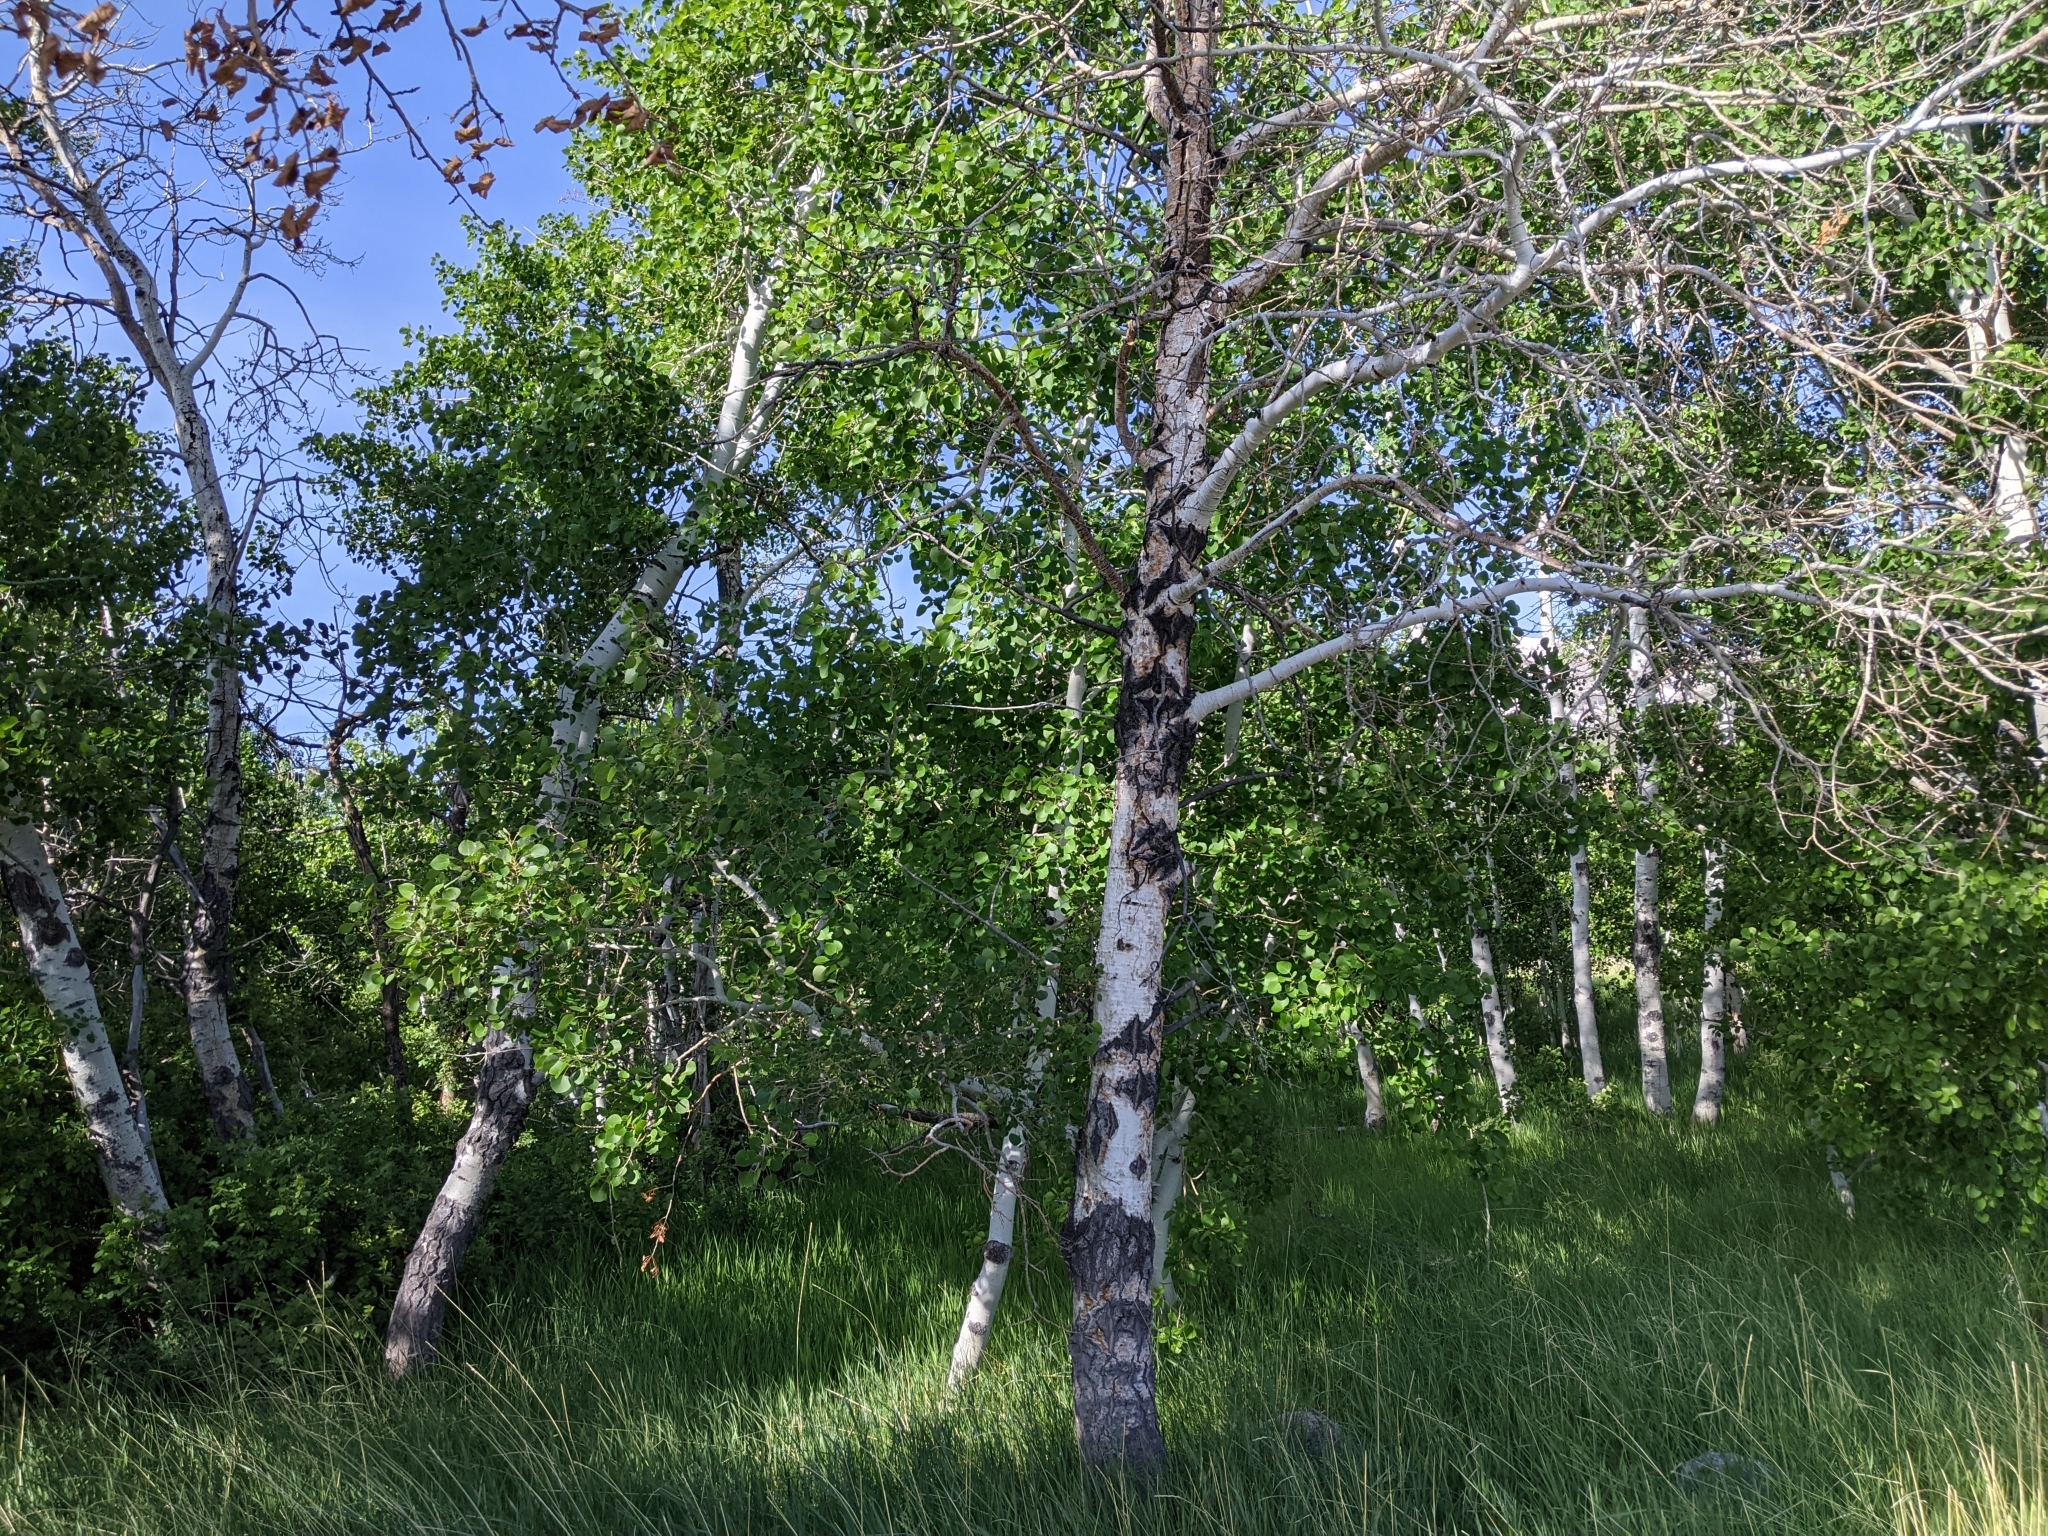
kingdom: Plantae
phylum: Tracheophyta
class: Magnoliopsida
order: Malpighiales
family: Salicaceae
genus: Populus
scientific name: Populus tremuloides
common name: Quaking aspen
